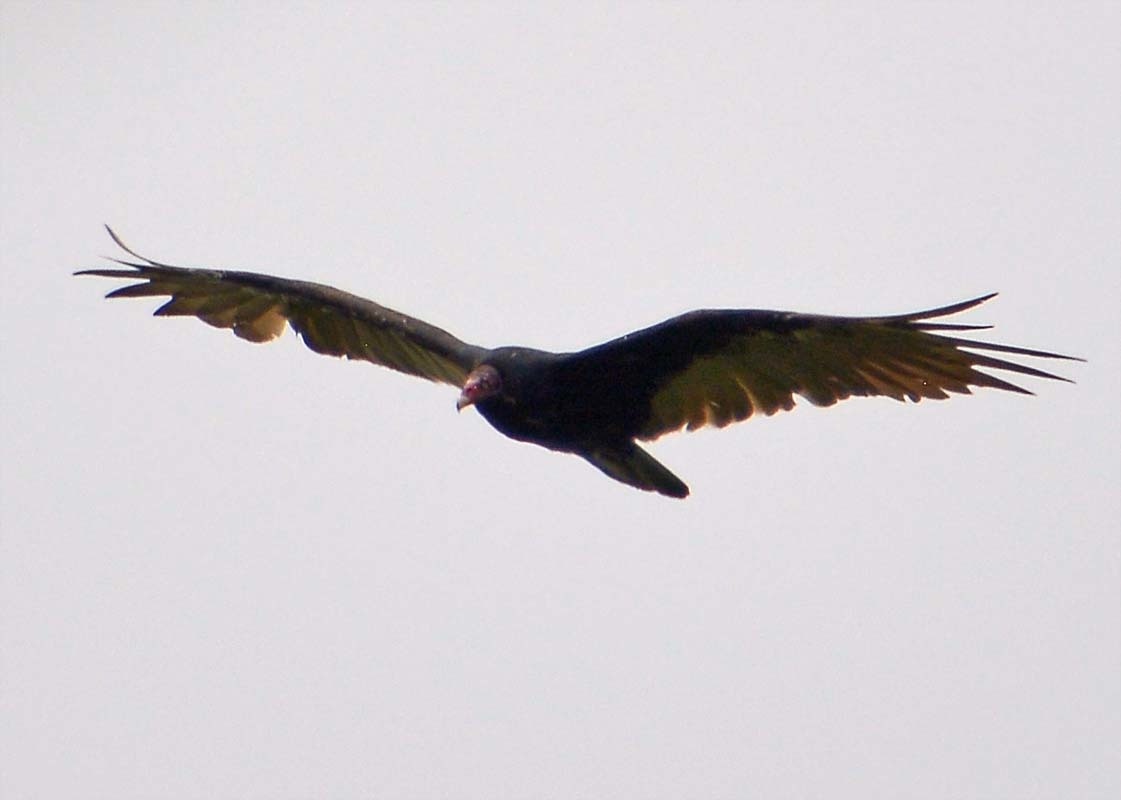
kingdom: Animalia
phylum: Chordata
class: Aves
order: Accipitriformes
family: Cathartidae
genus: Cathartes
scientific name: Cathartes aura
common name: Turkey vulture
